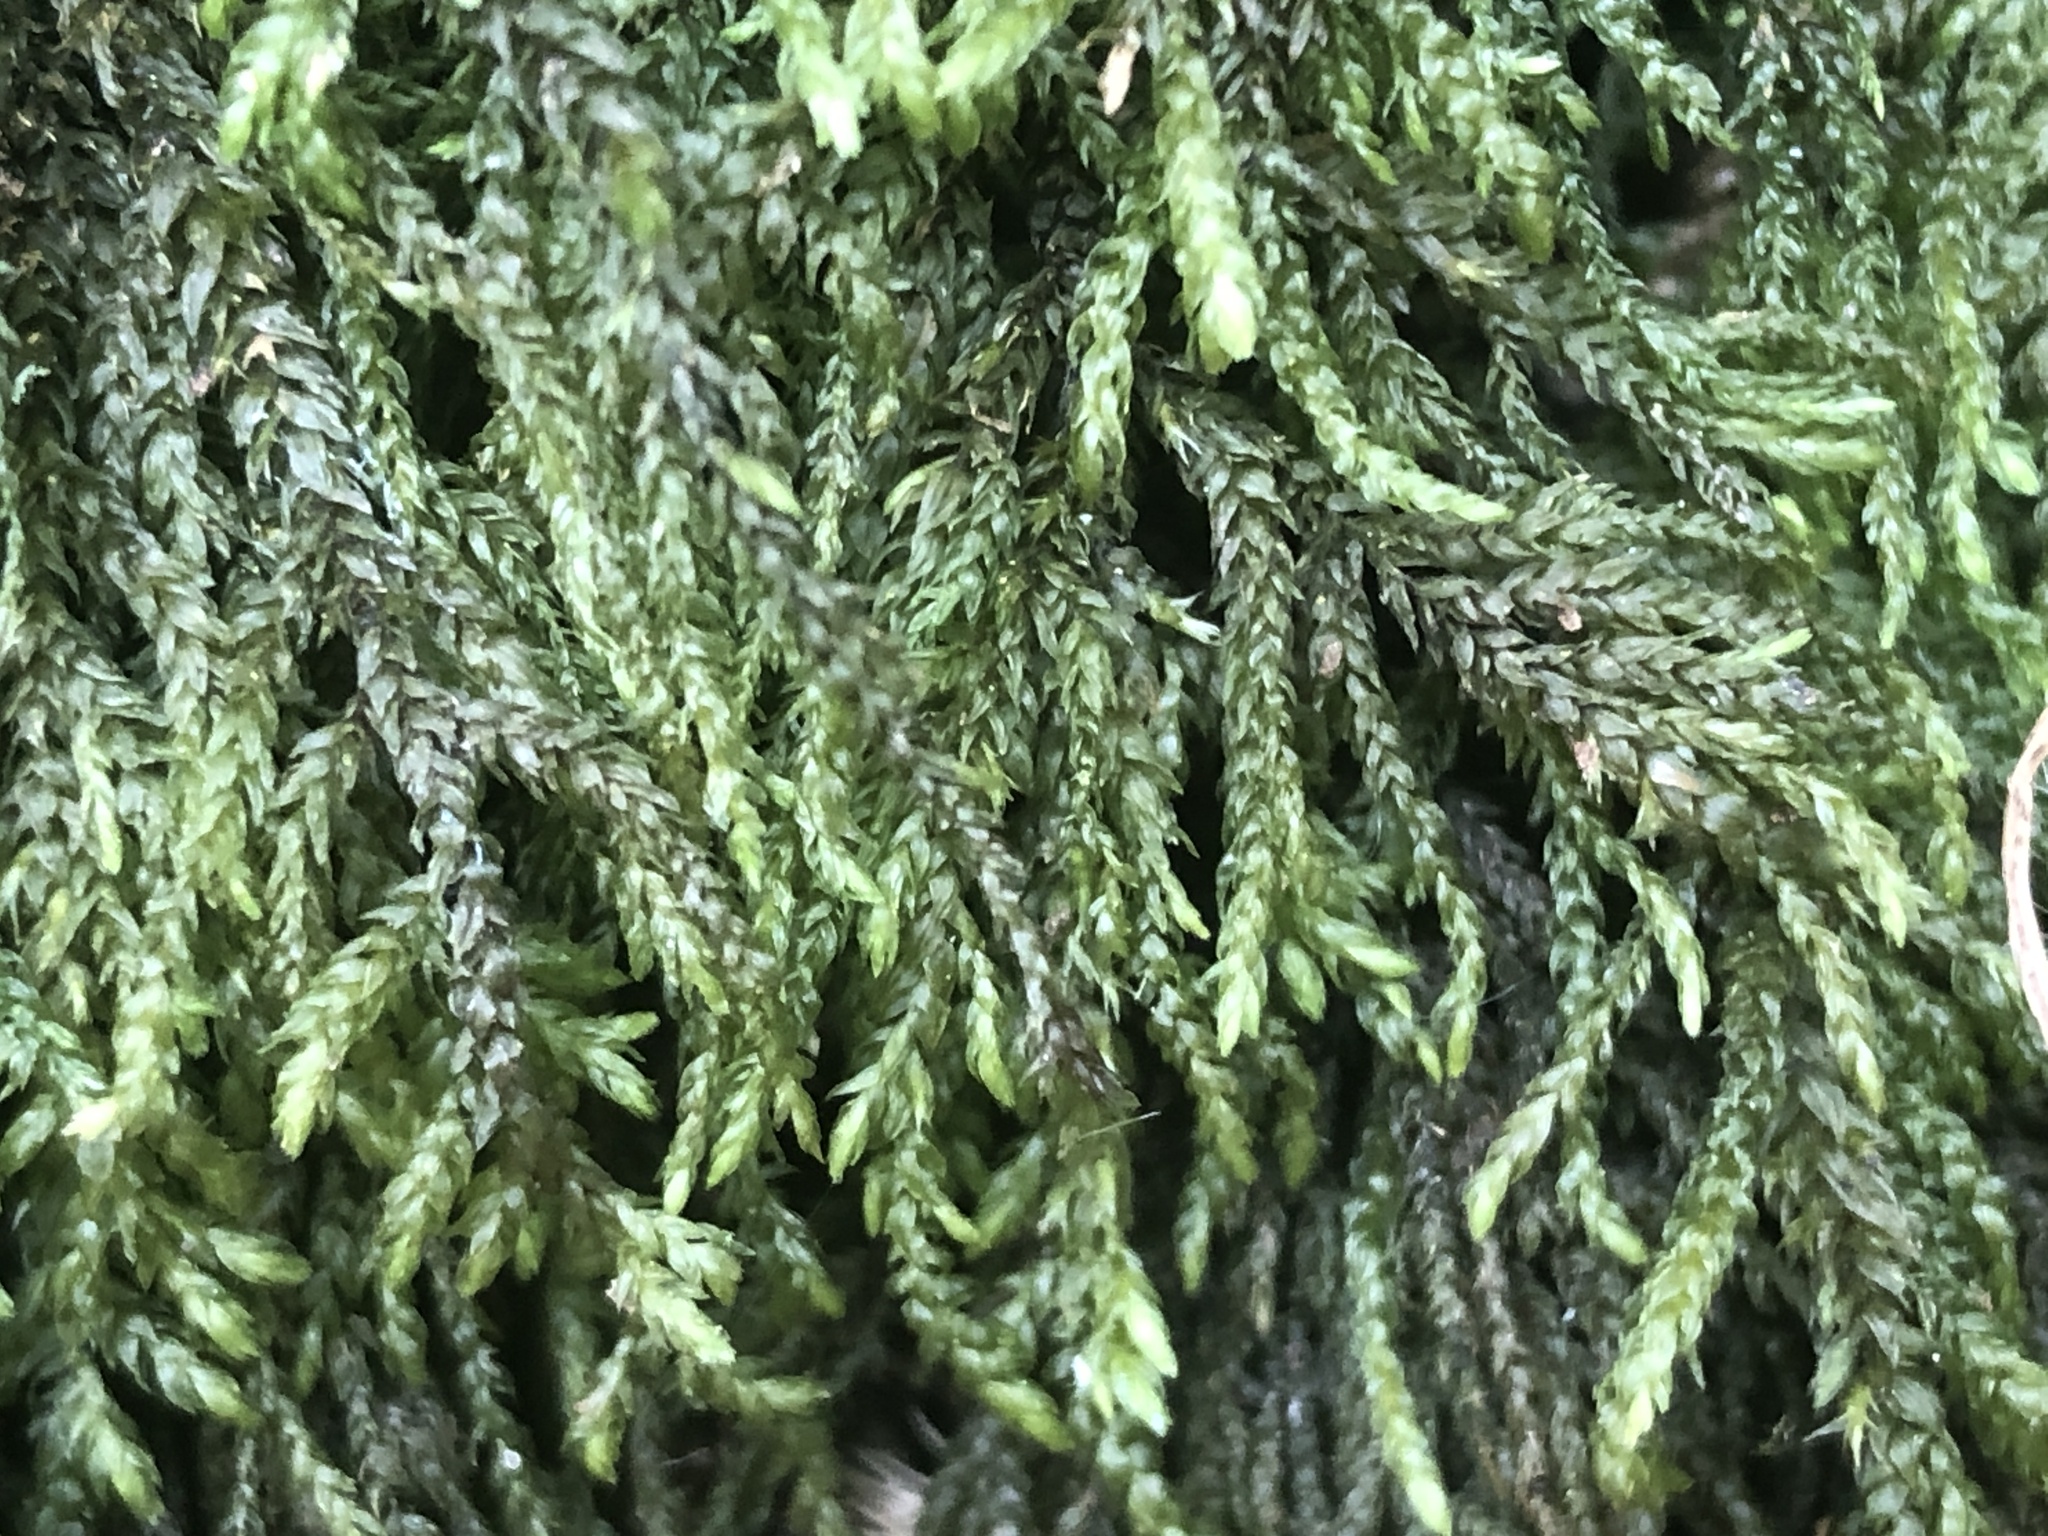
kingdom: Plantae
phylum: Bryophyta
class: Bryopsida
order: Hypnales
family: Neckeraceae
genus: Thamnobryum
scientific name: Thamnobryum alopecurum
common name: Fox-tail feather-moss
